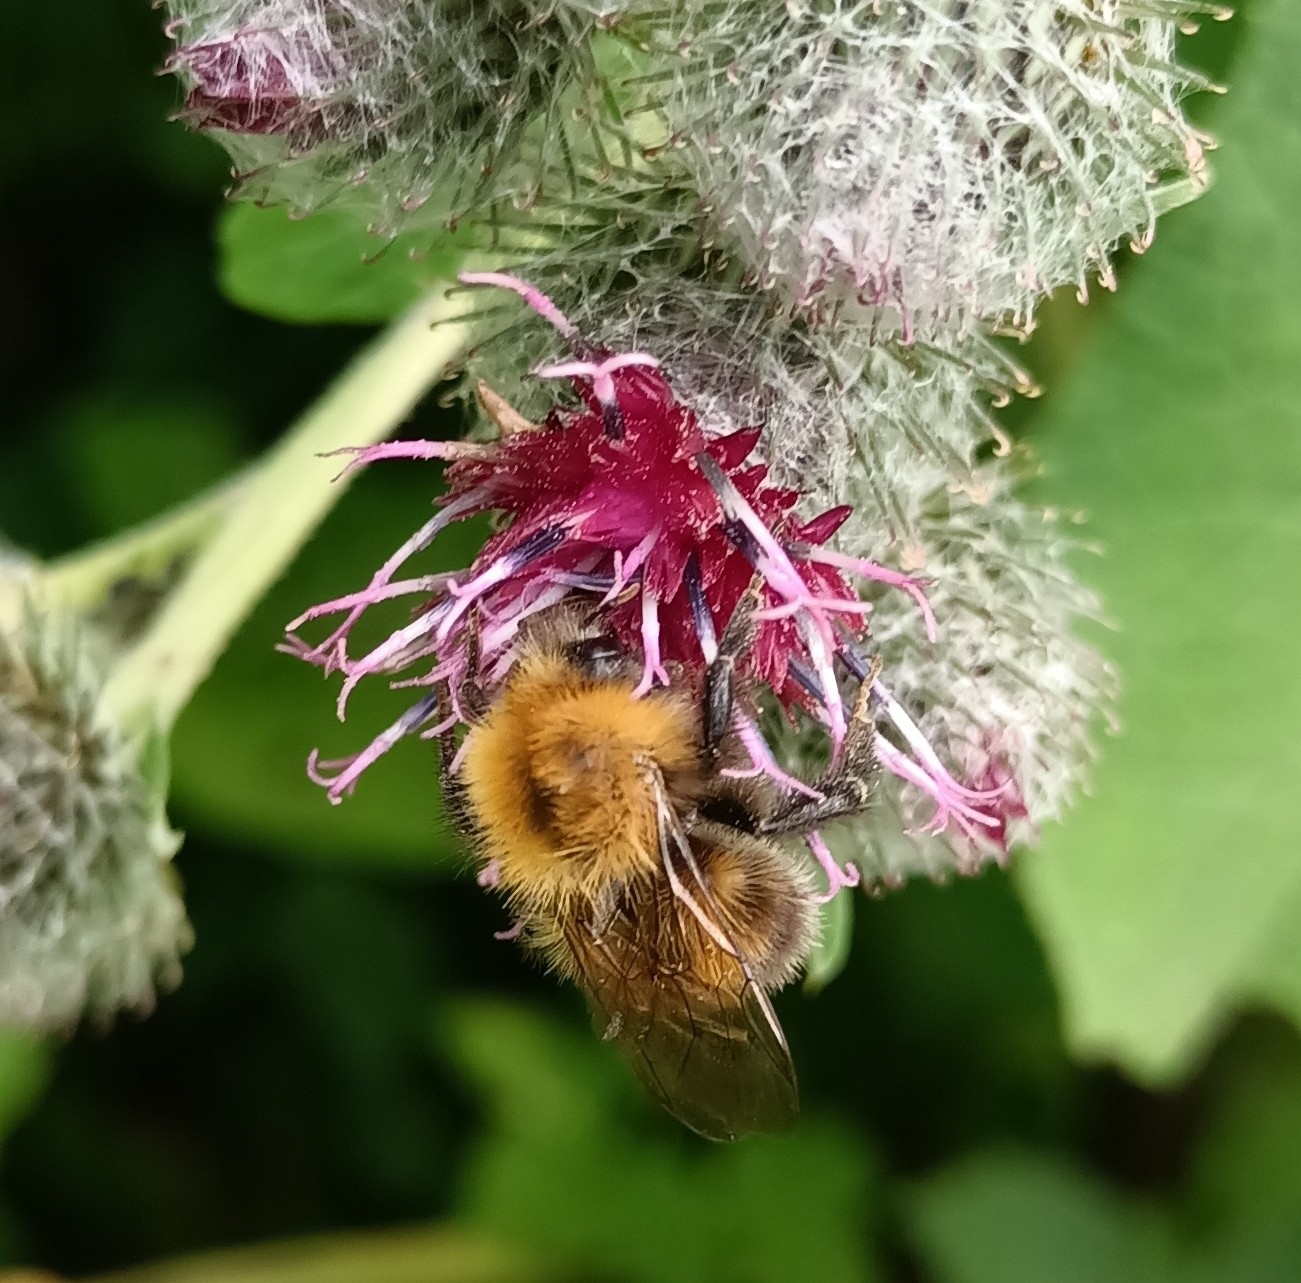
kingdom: Animalia
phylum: Arthropoda
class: Insecta
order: Hymenoptera
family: Apidae
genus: Bombus
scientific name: Bombus hypnorum
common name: New garden bumblebee
